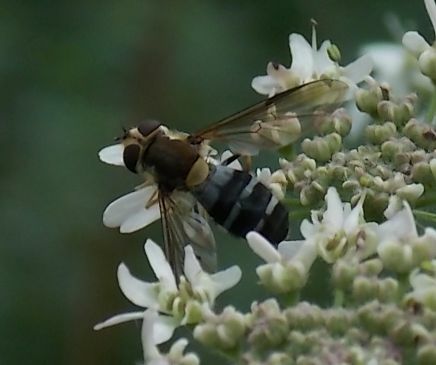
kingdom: Animalia
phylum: Arthropoda
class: Insecta
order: Diptera
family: Syrphidae
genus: Leucozona
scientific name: Leucozona glaucia
